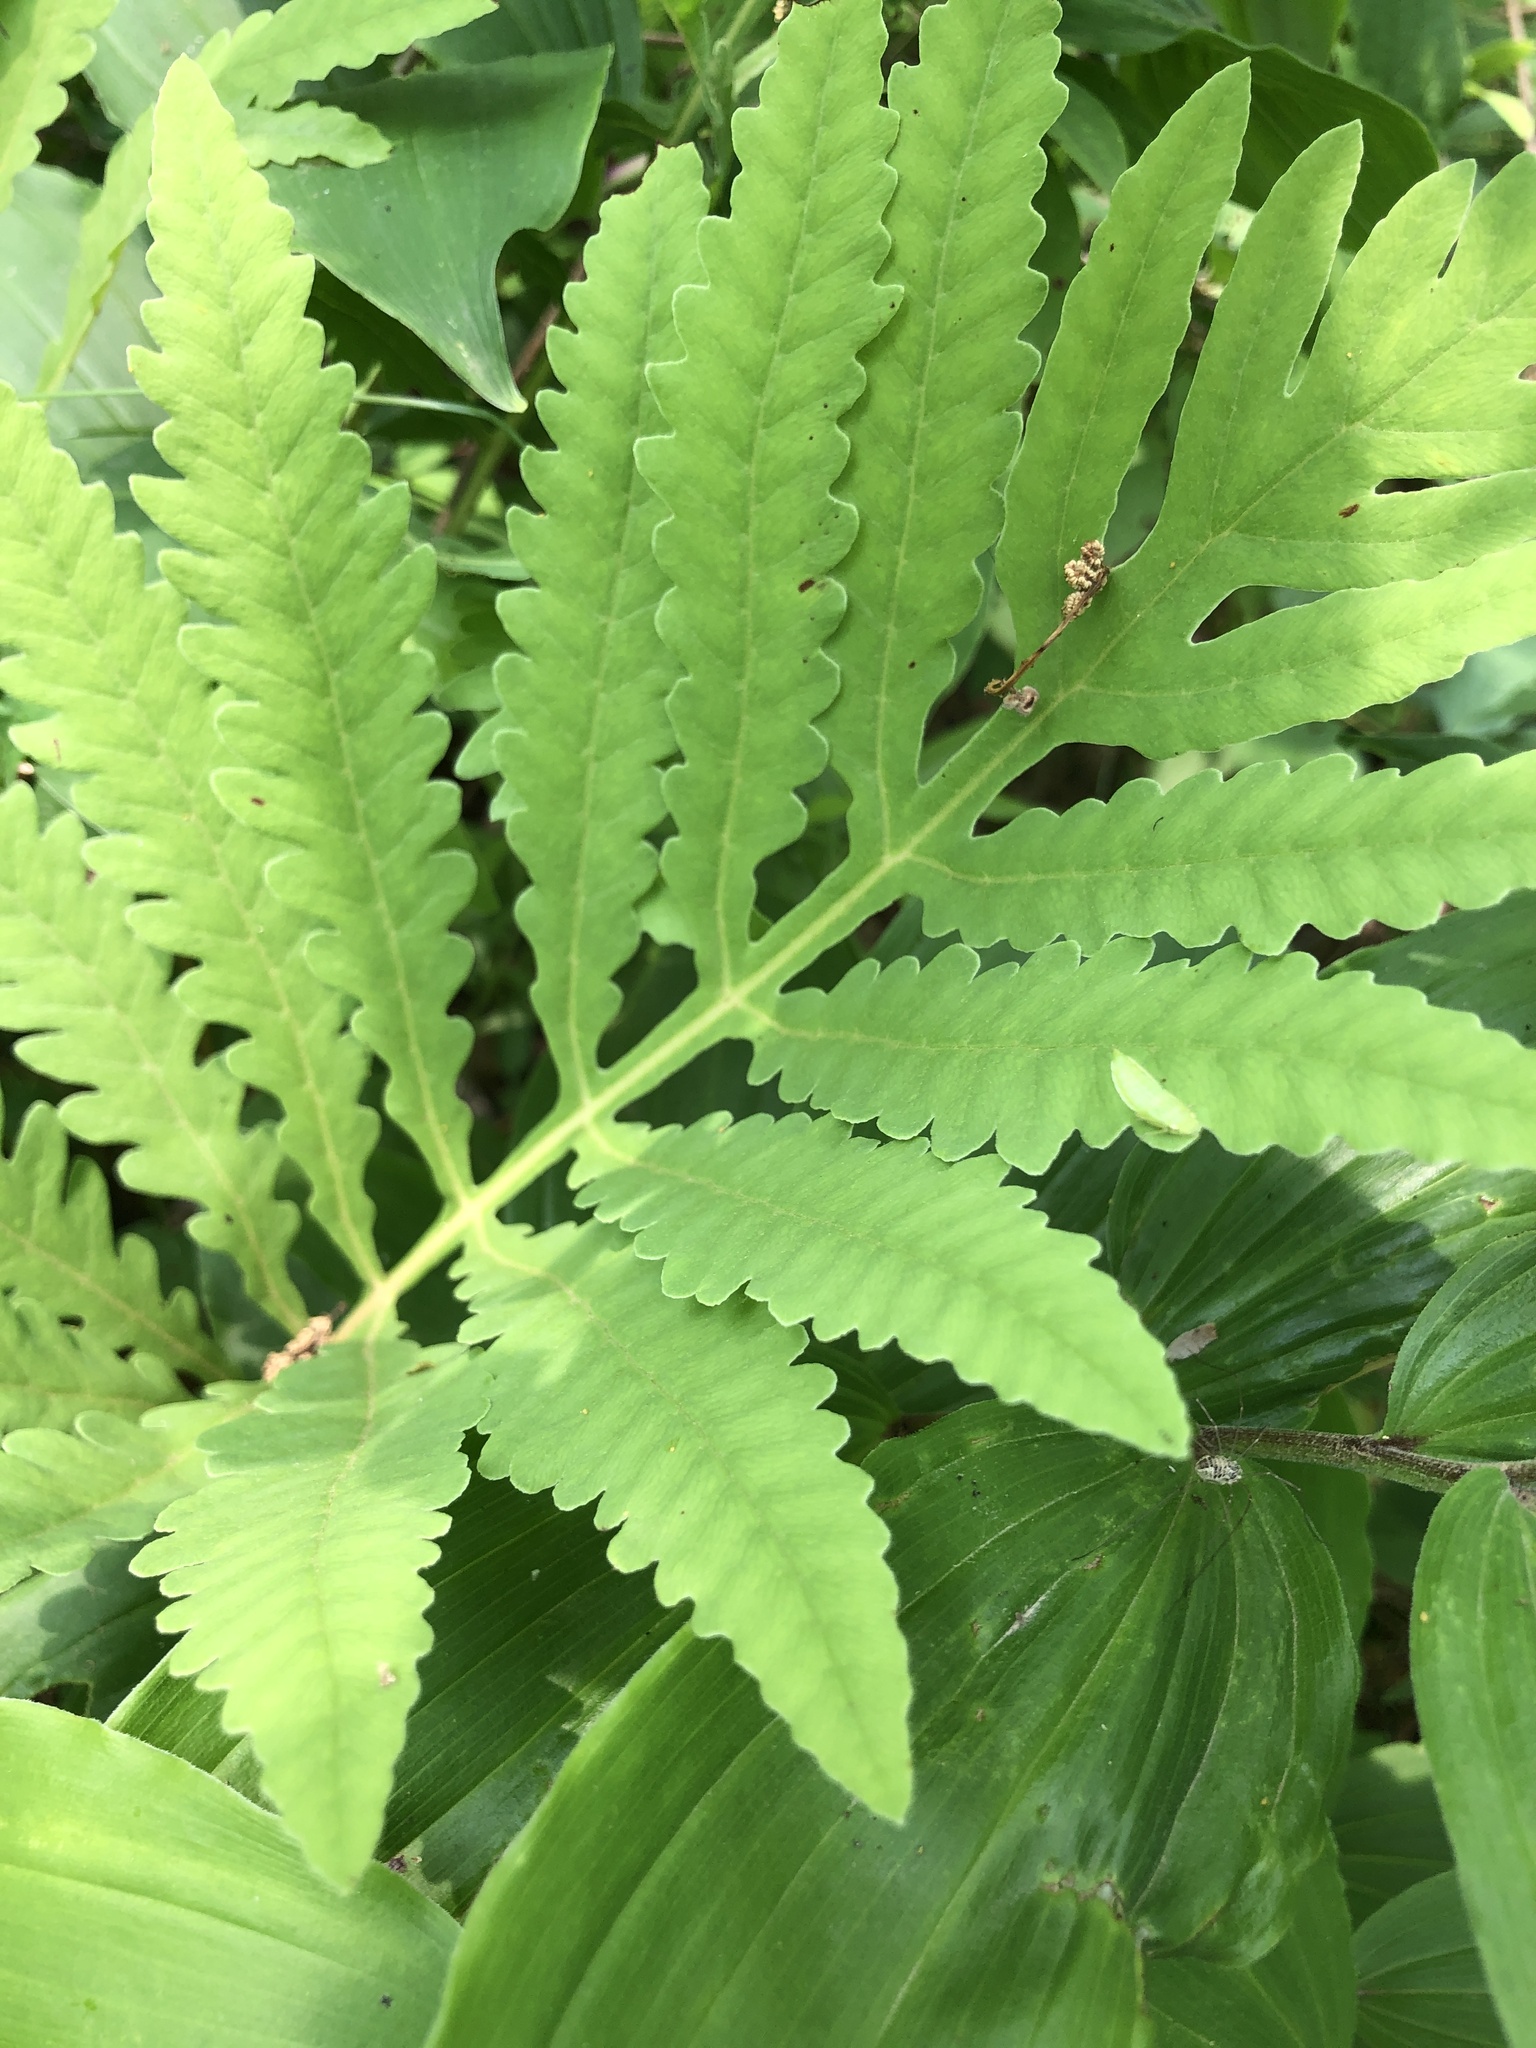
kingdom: Plantae
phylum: Tracheophyta
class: Polypodiopsida
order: Polypodiales
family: Onocleaceae
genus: Onoclea
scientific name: Onoclea sensibilis
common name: Sensitive fern
